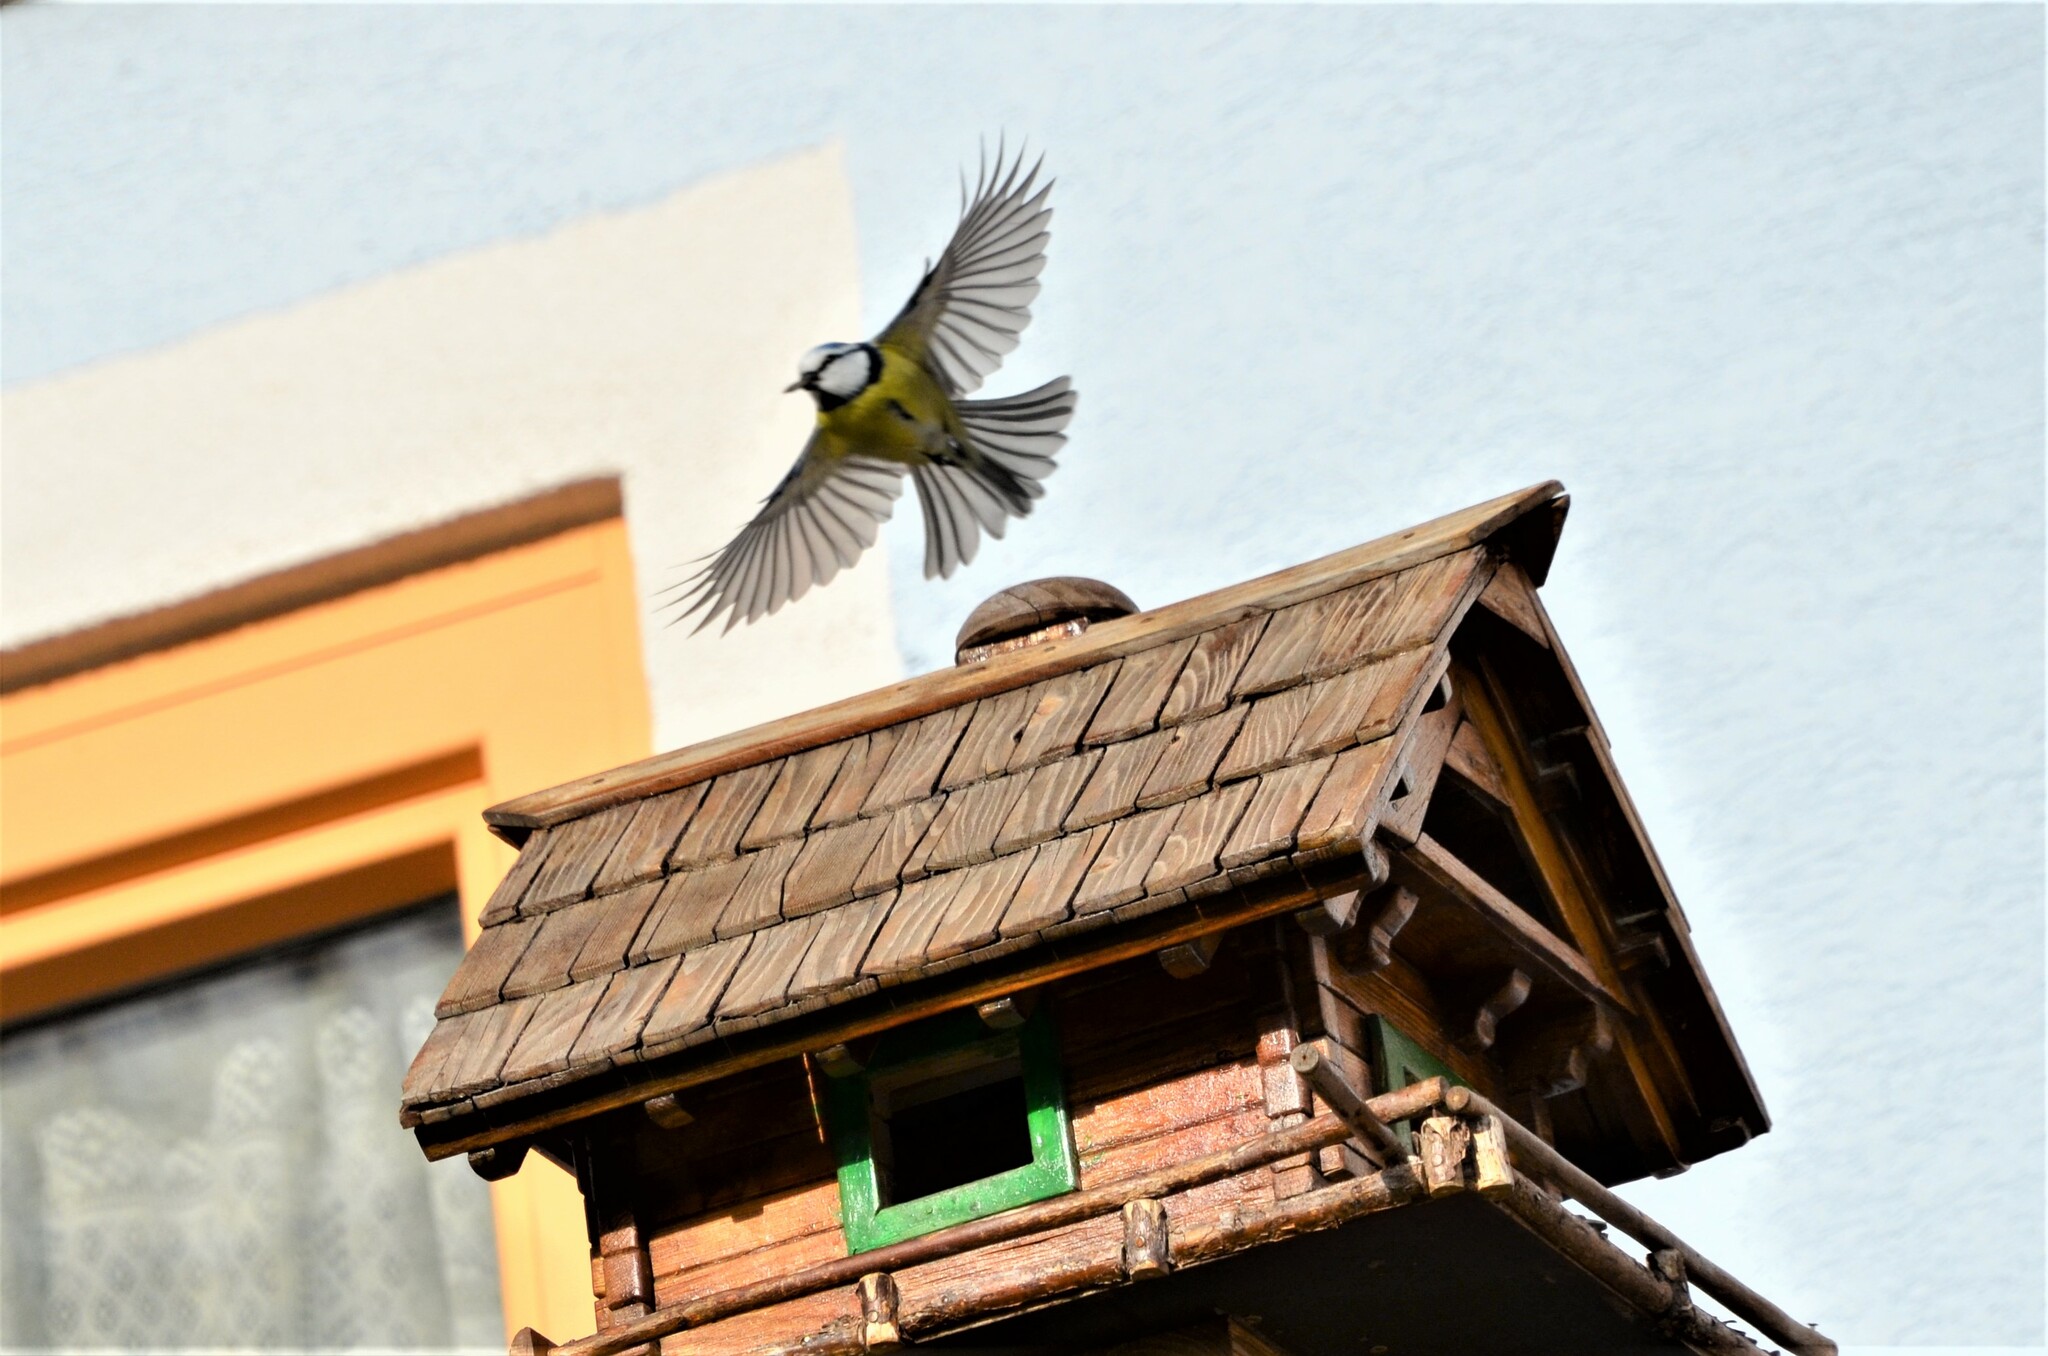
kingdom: Animalia
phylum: Chordata
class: Aves
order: Passeriformes
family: Paridae
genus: Cyanistes
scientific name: Cyanistes caeruleus
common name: Eurasian blue tit
